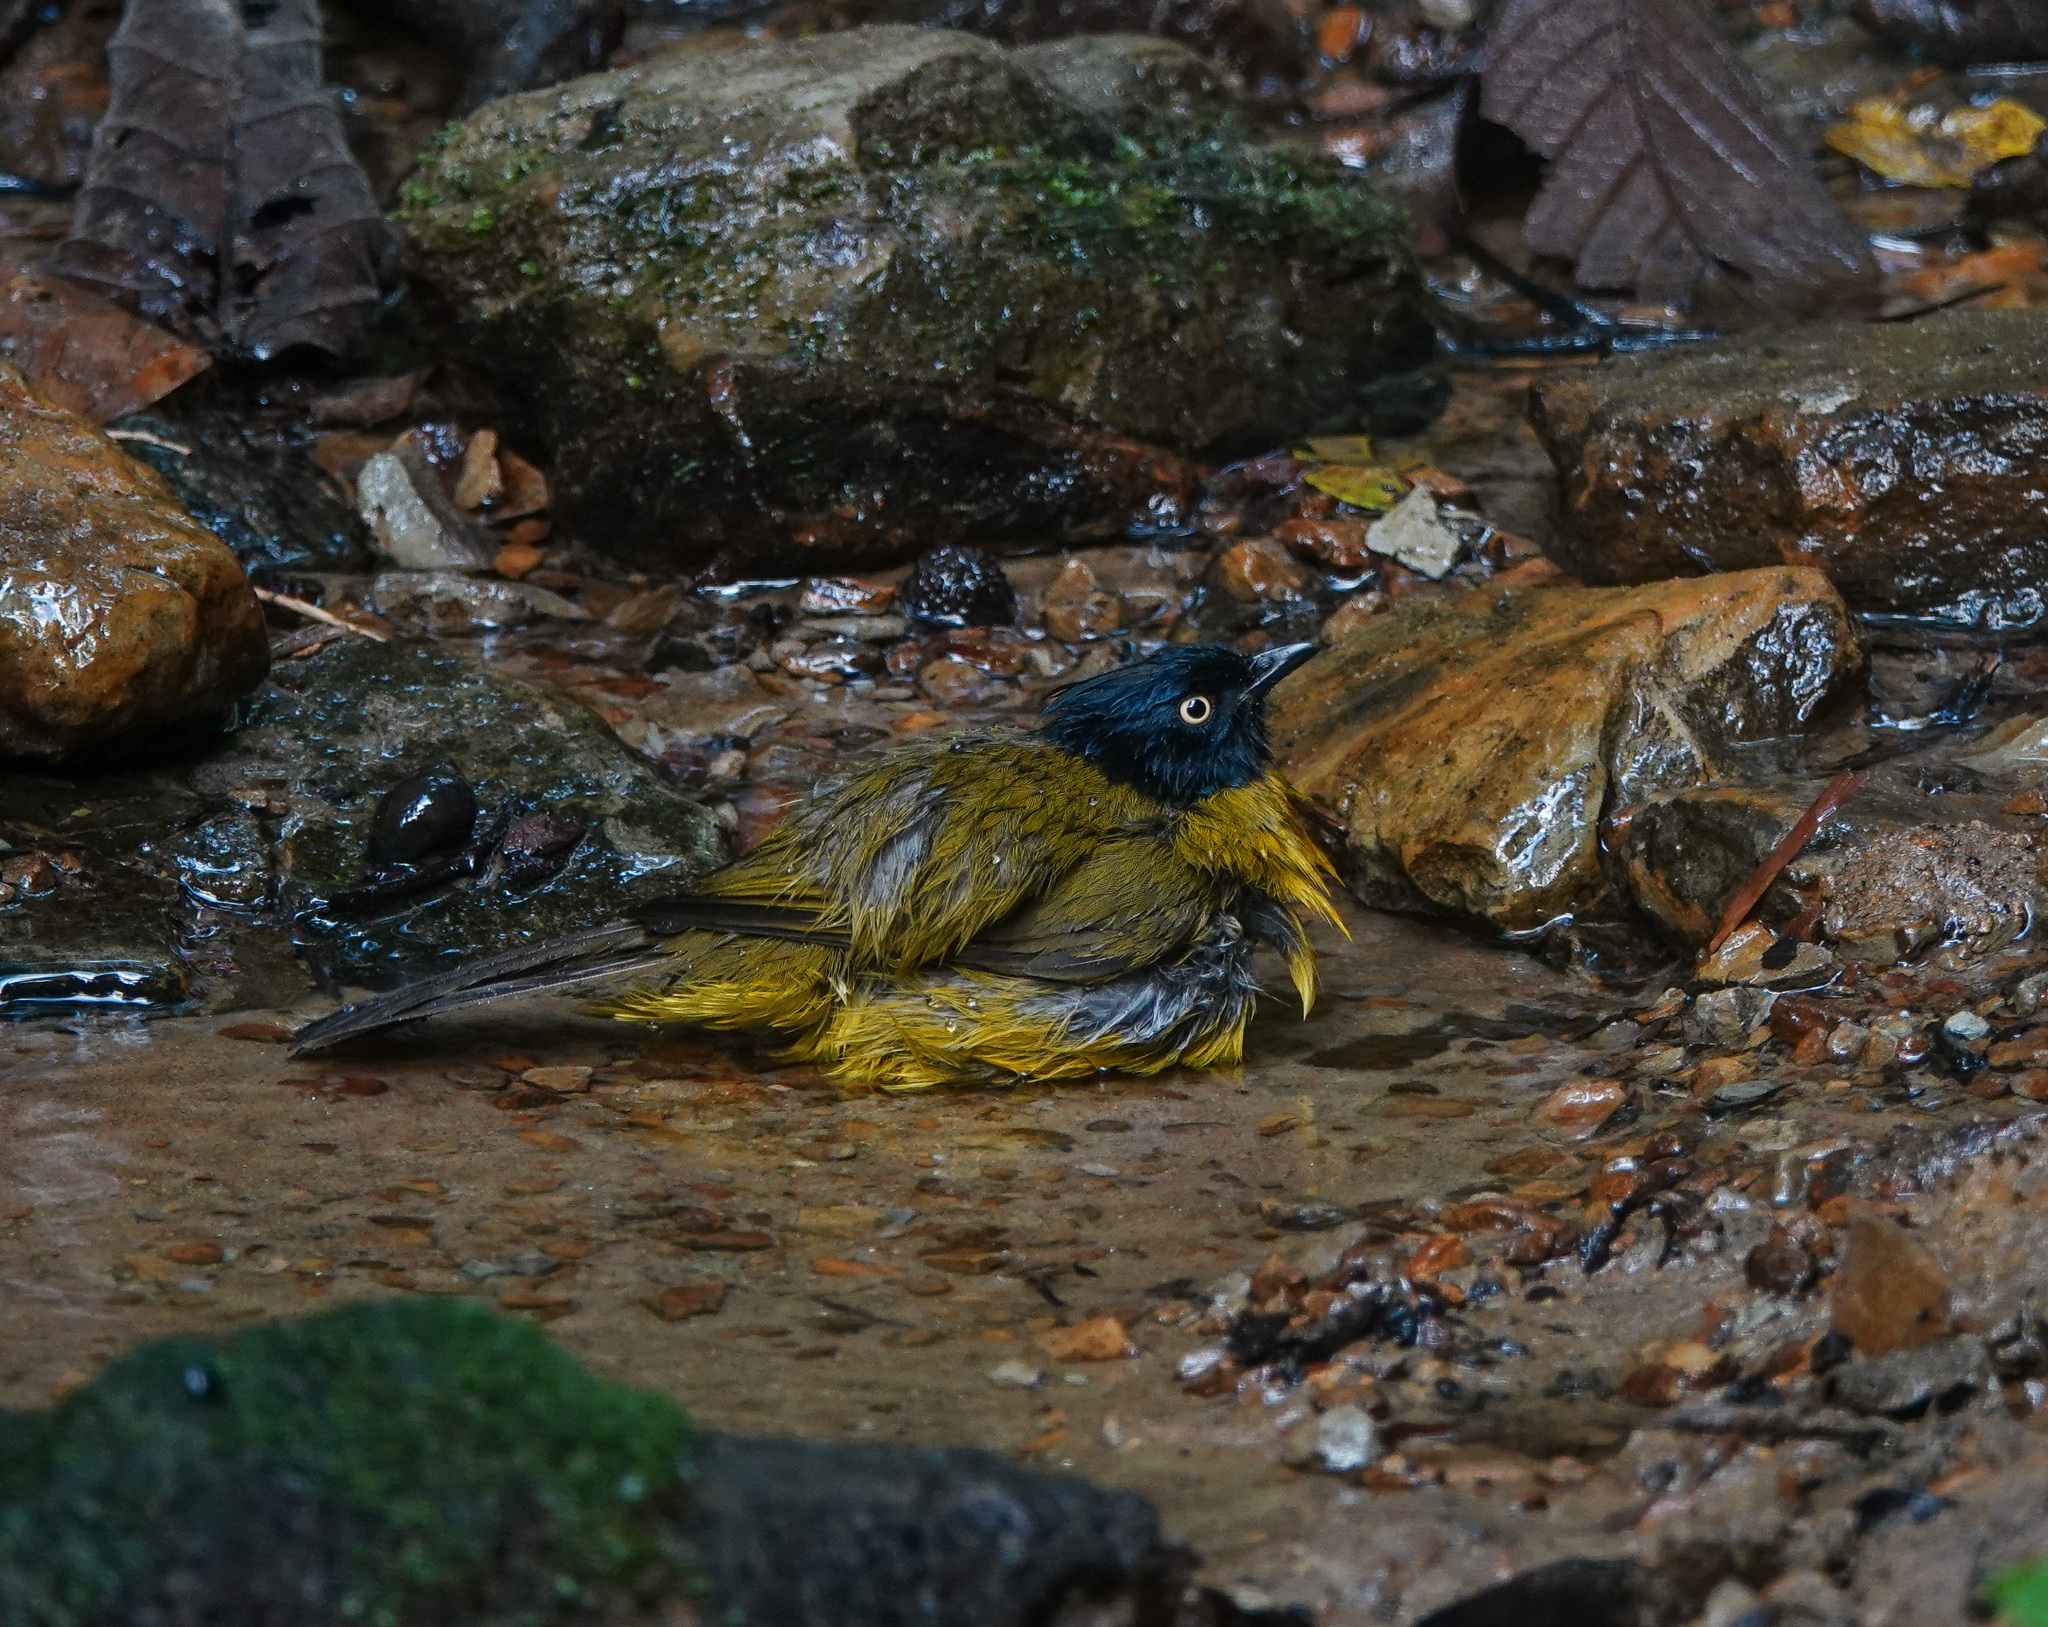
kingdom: Animalia
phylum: Chordata
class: Aves
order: Passeriformes
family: Pycnonotidae
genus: Pycnonotus
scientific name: Pycnonotus flaviventris
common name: Black-crested bulbul
